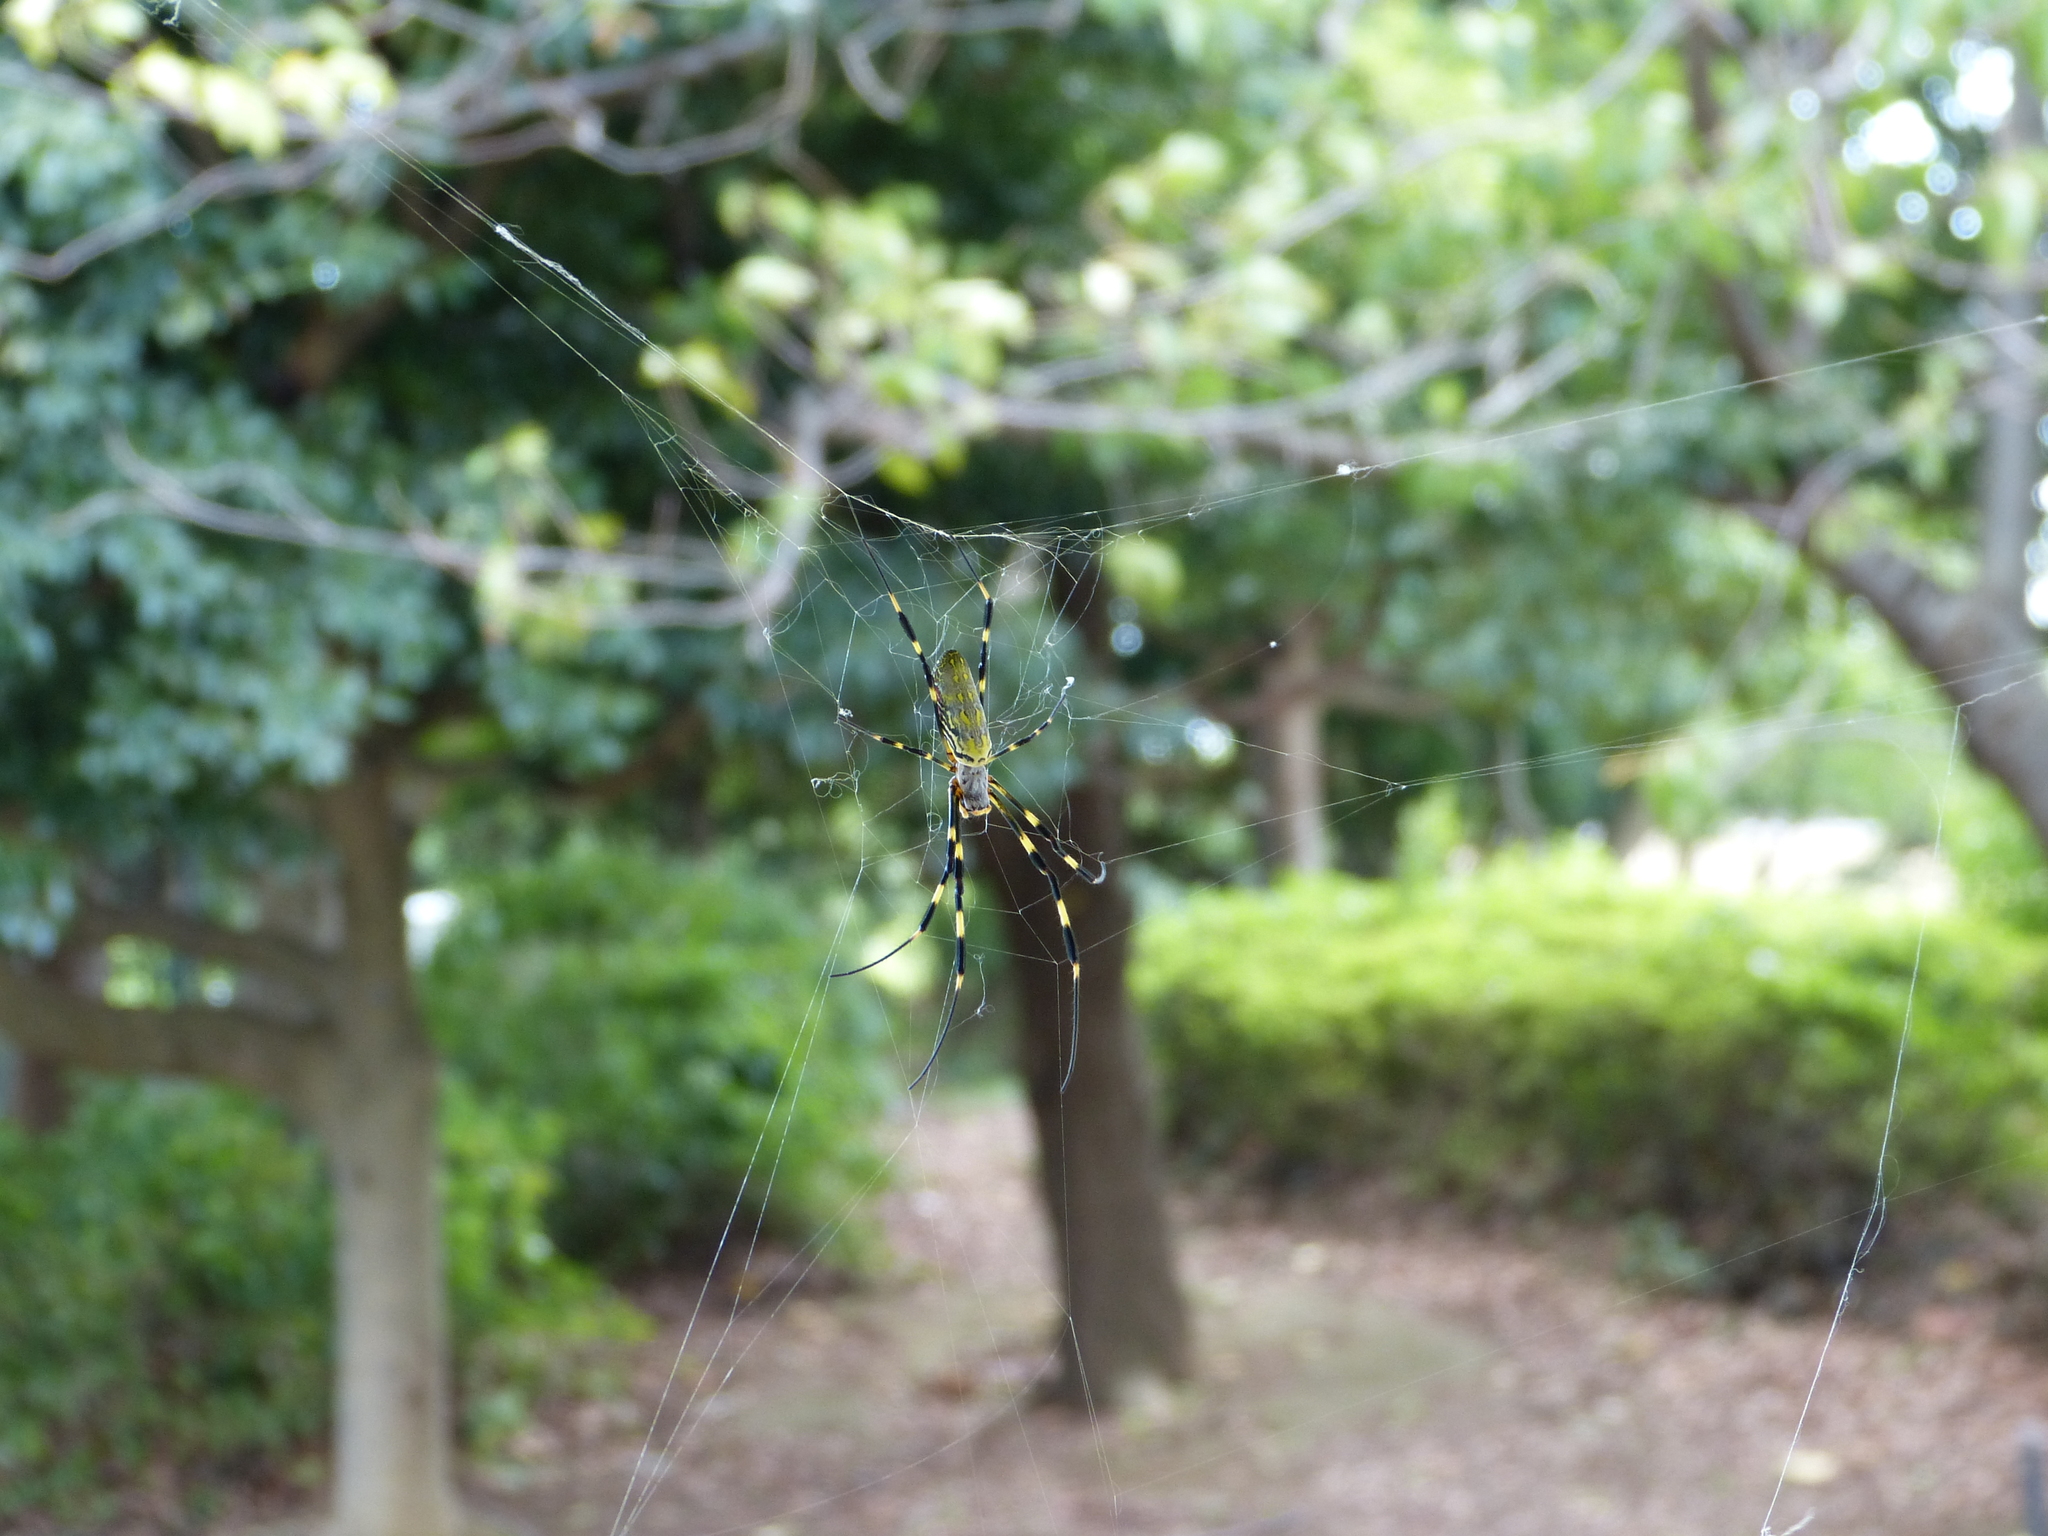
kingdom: Animalia
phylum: Arthropoda
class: Arachnida
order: Araneae
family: Araneidae
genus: Trichonephila
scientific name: Trichonephila clavata
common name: Jorō spider
